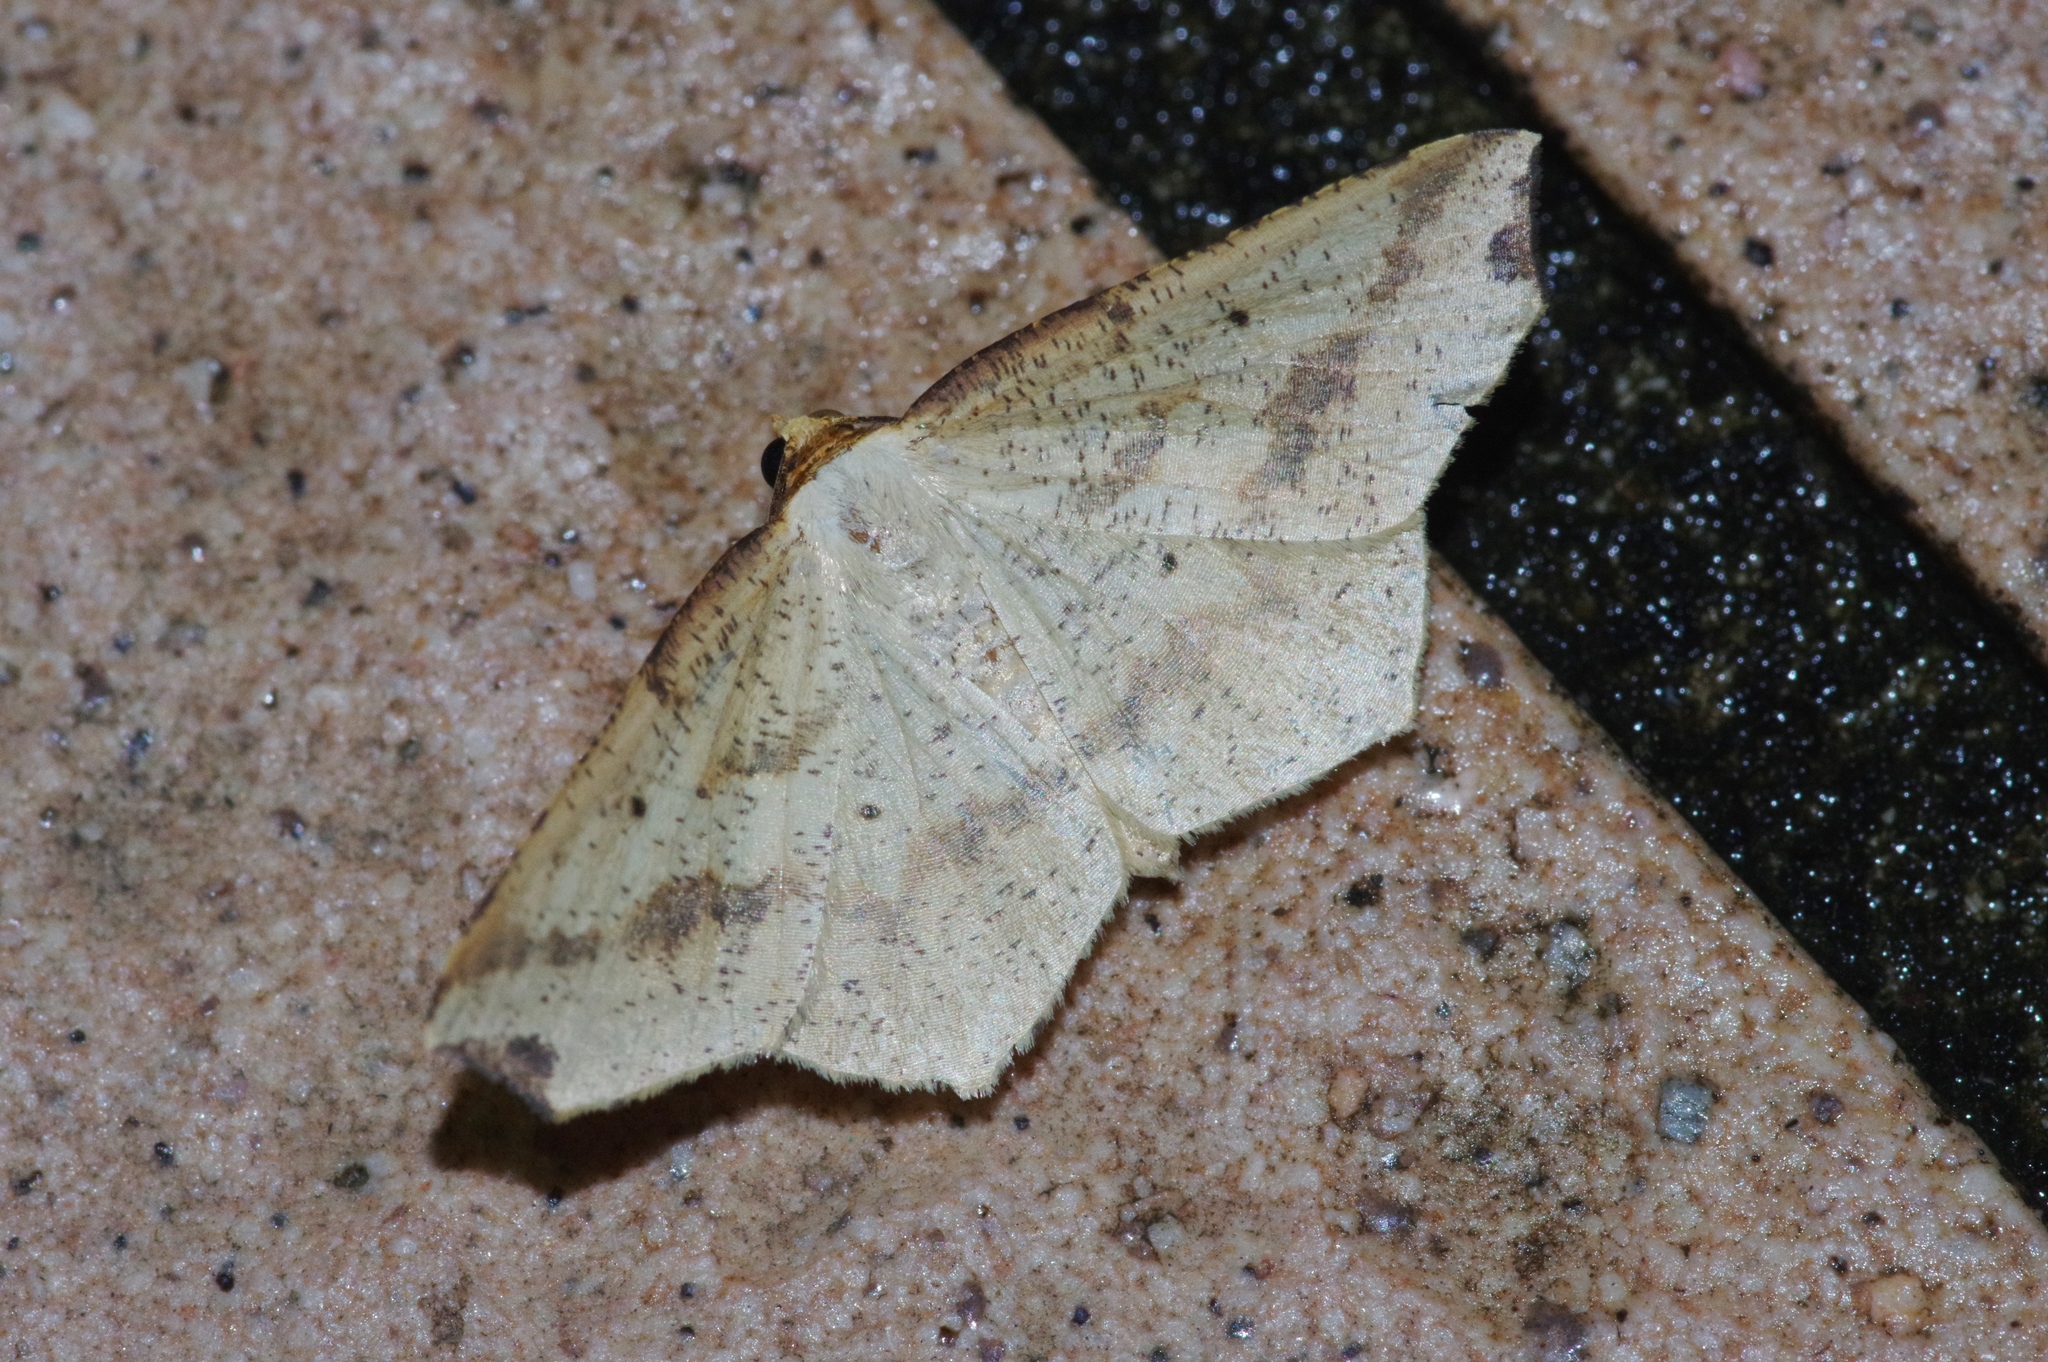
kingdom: Animalia
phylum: Arthropoda
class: Insecta
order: Lepidoptera
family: Geometridae
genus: Pareclipsis
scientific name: Pareclipsis gracilis
